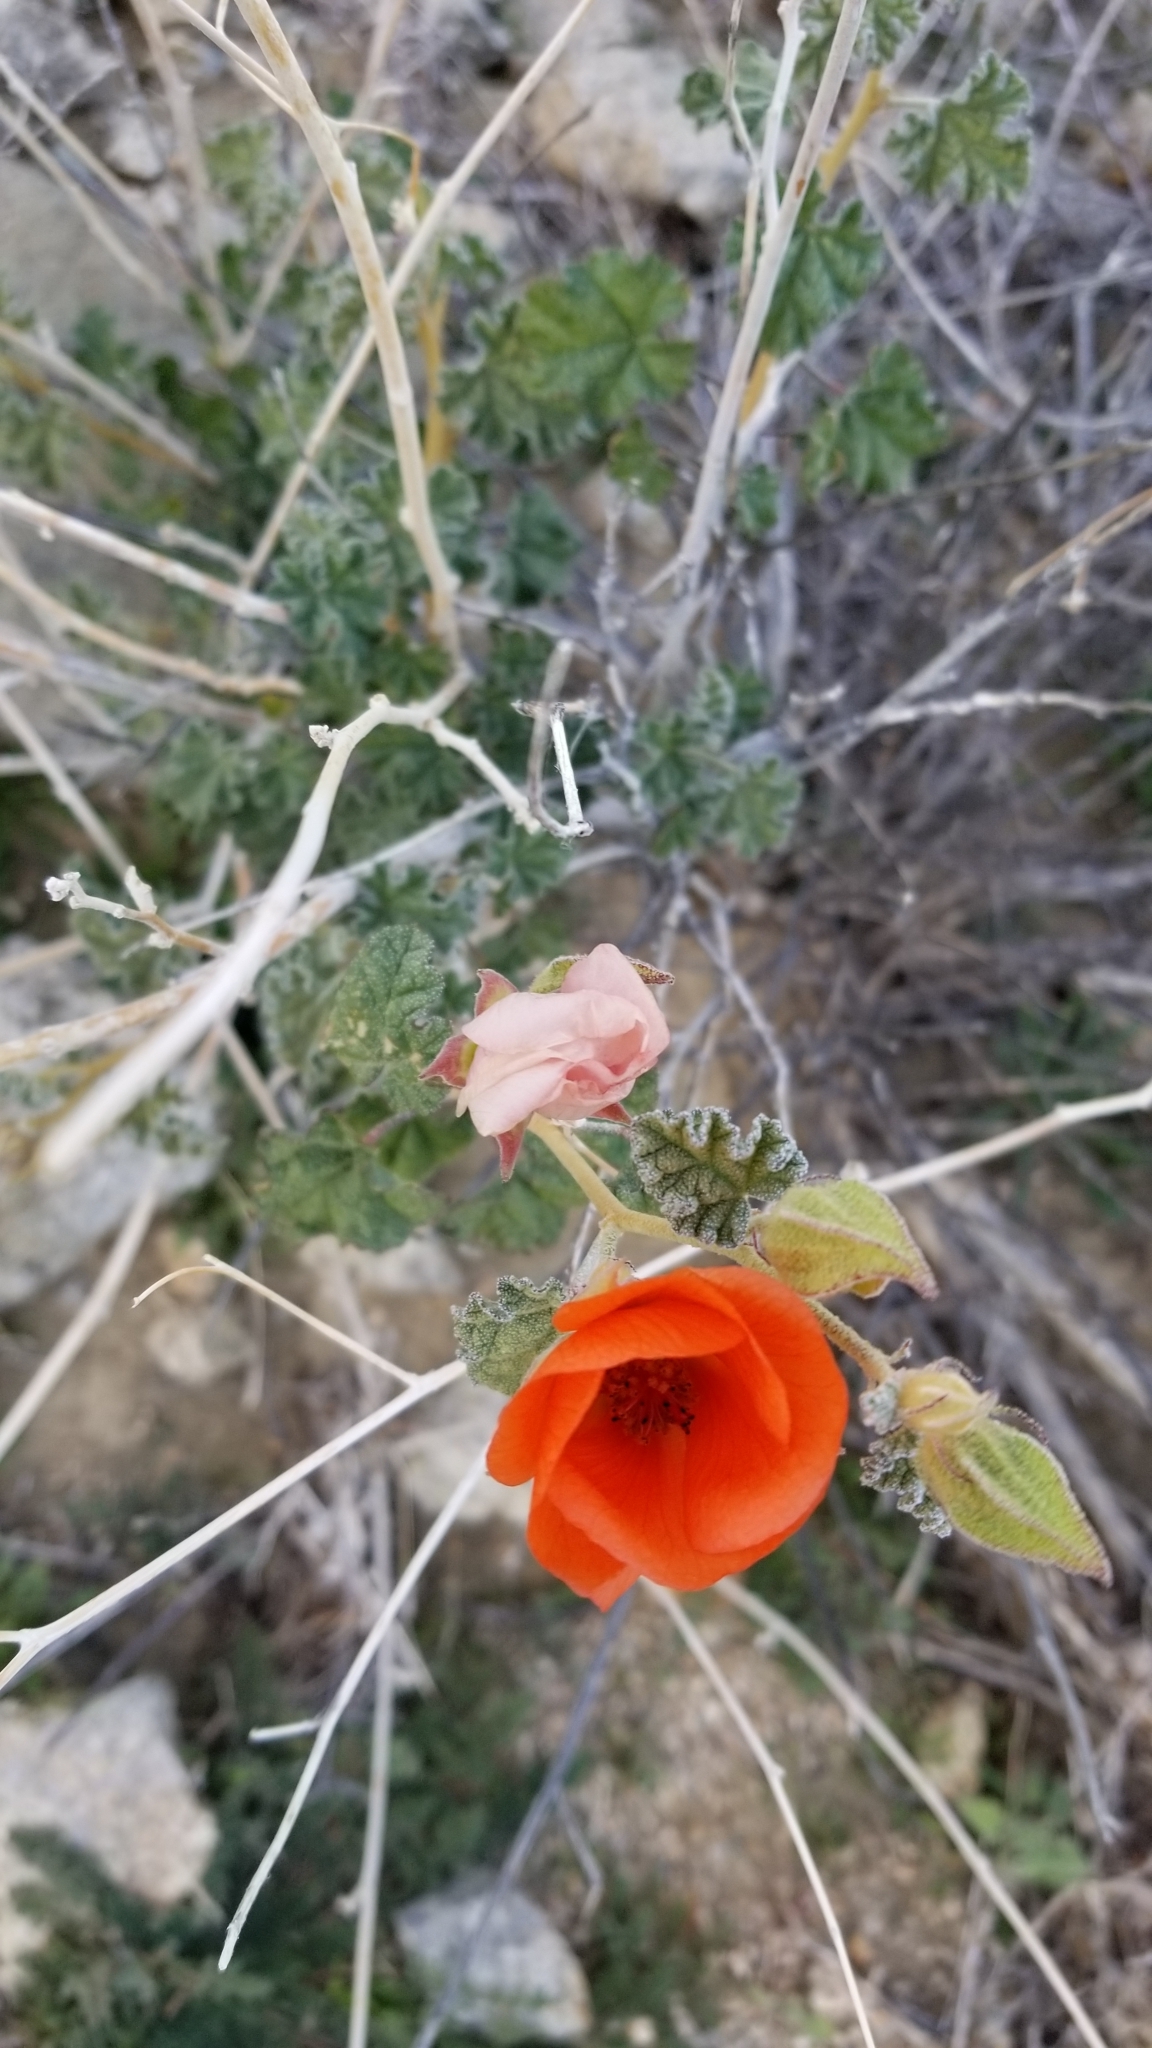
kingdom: Plantae
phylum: Tracheophyta
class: Magnoliopsida
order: Malvales
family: Malvaceae
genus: Sphaeralcea
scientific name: Sphaeralcea ambigua
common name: Apricot globe-mallow
